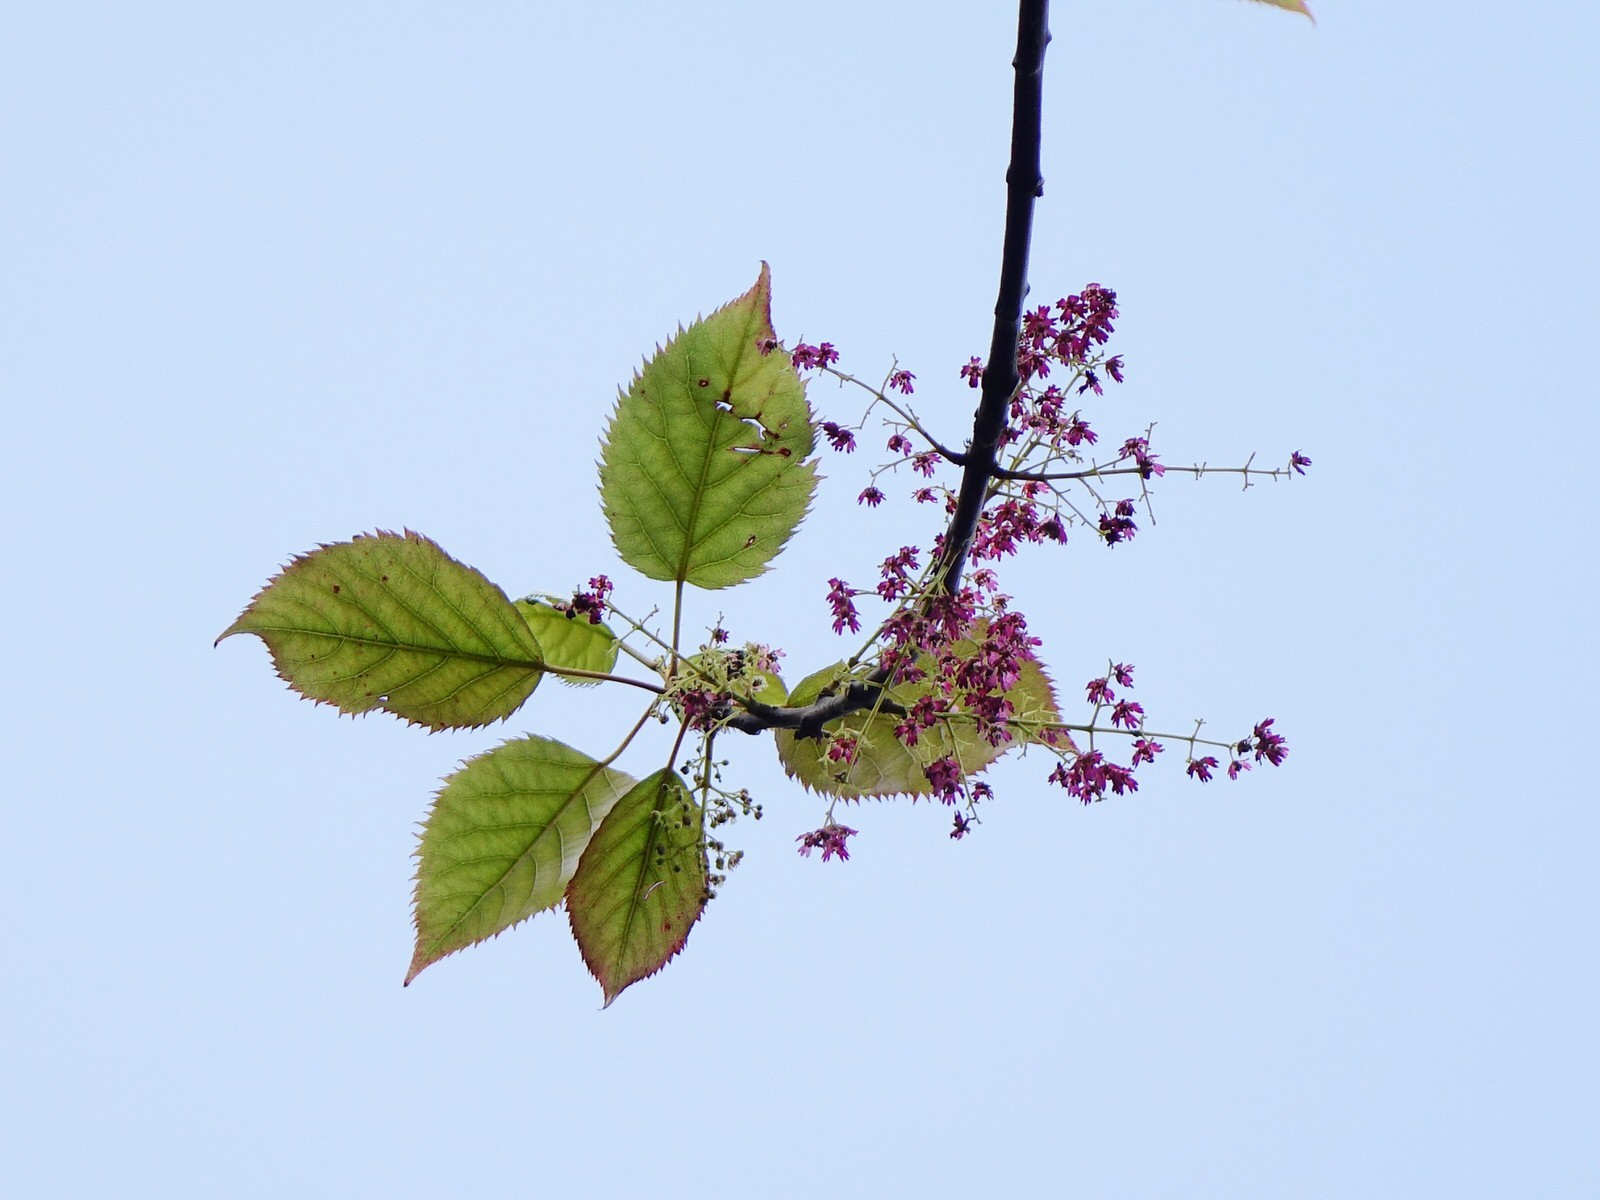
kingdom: Plantae
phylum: Tracheophyta
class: Magnoliopsida
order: Oxalidales
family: Elaeocarpaceae
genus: Aristotelia
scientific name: Aristotelia serrata
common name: New zealand wineberry
